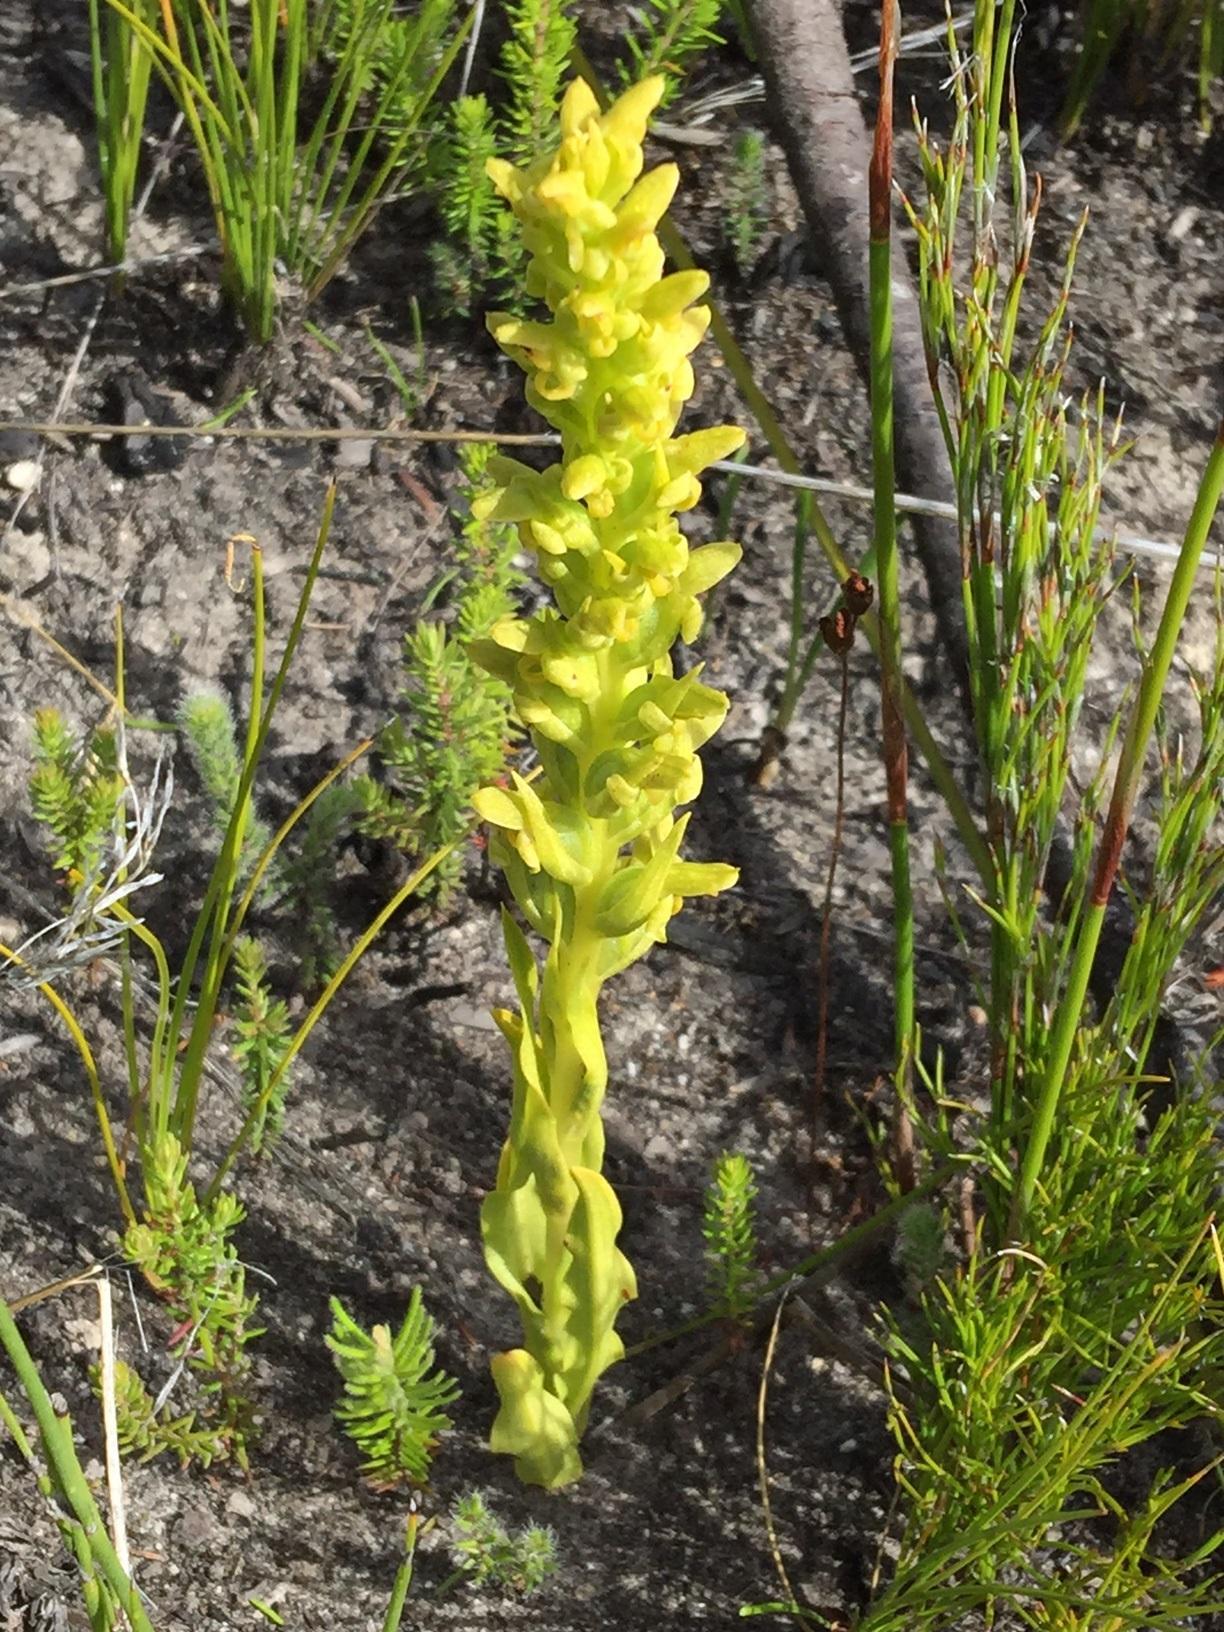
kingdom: Plantae
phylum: Tracheophyta
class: Liliopsida
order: Asparagales
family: Orchidaceae
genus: Disa
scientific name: Disa cylindrica
